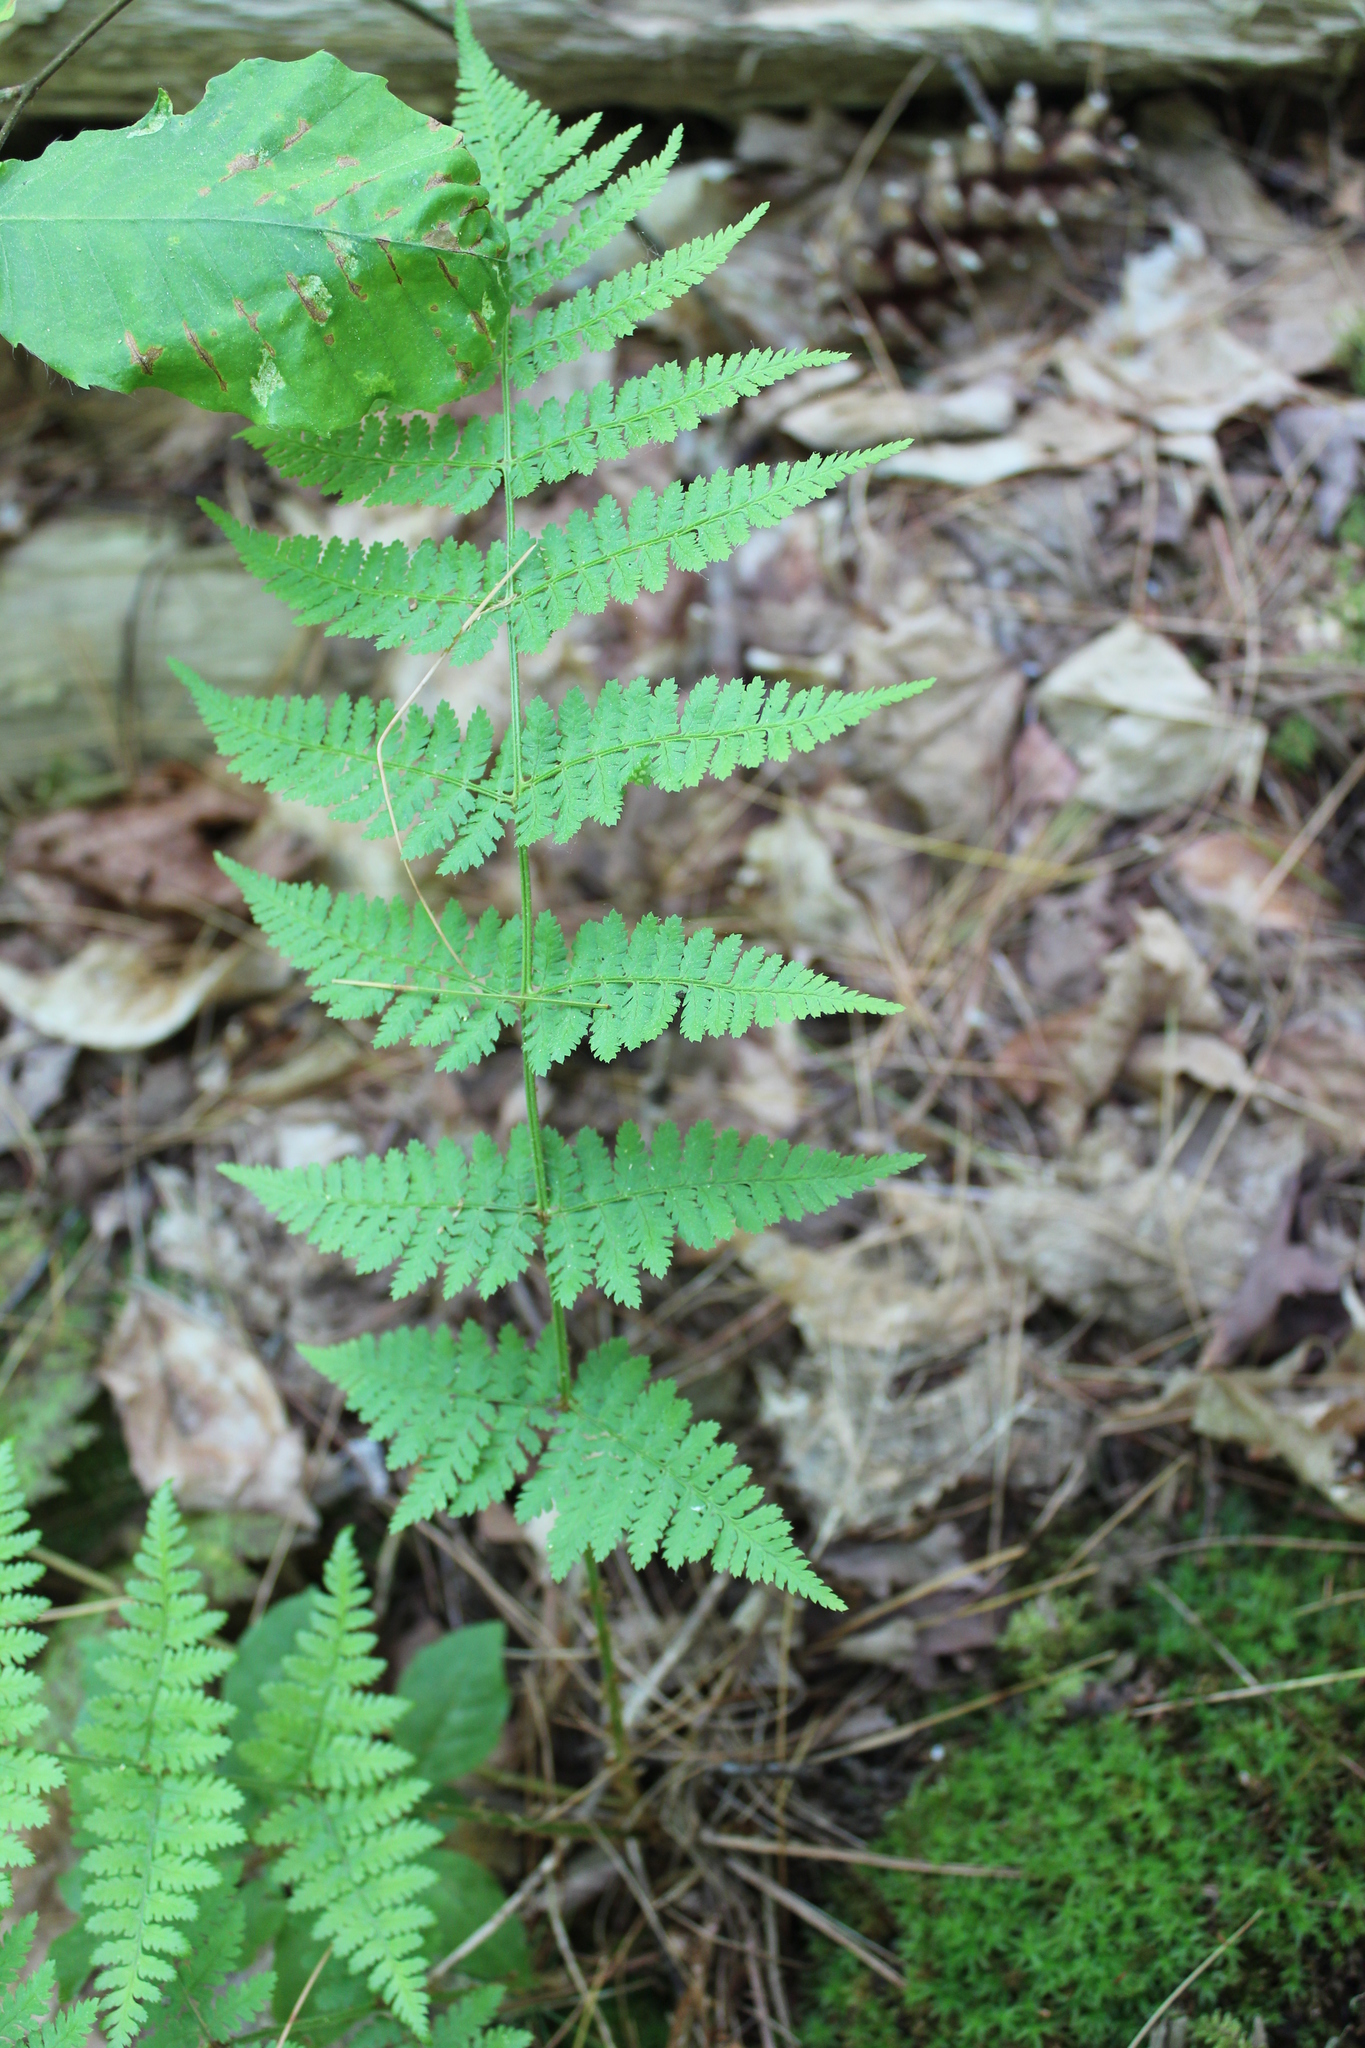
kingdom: Plantae
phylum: Tracheophyta
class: Polypodiopsida
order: Polypodiales
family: Dryopteridaceae
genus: Dryopteris
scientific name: Dryopteris intermedia
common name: Evergreen wood fern
